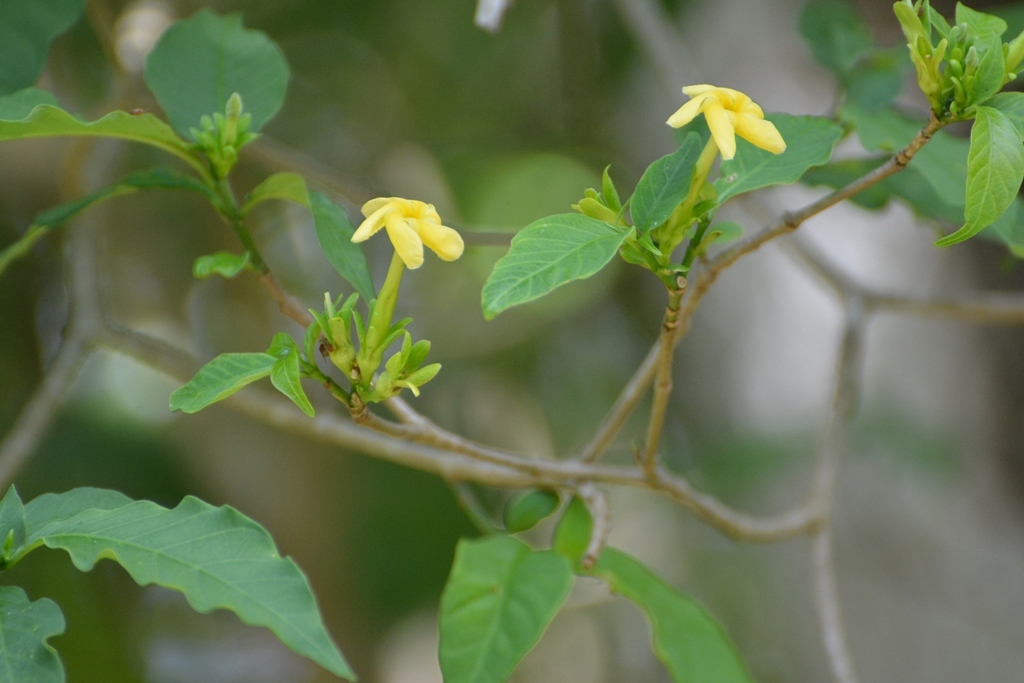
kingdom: Plantae
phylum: Tracheophyta
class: Magnoliopsida
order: Gentianales
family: Apocynaceae
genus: Tabernaemontana
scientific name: Tabernaemontana hannae
